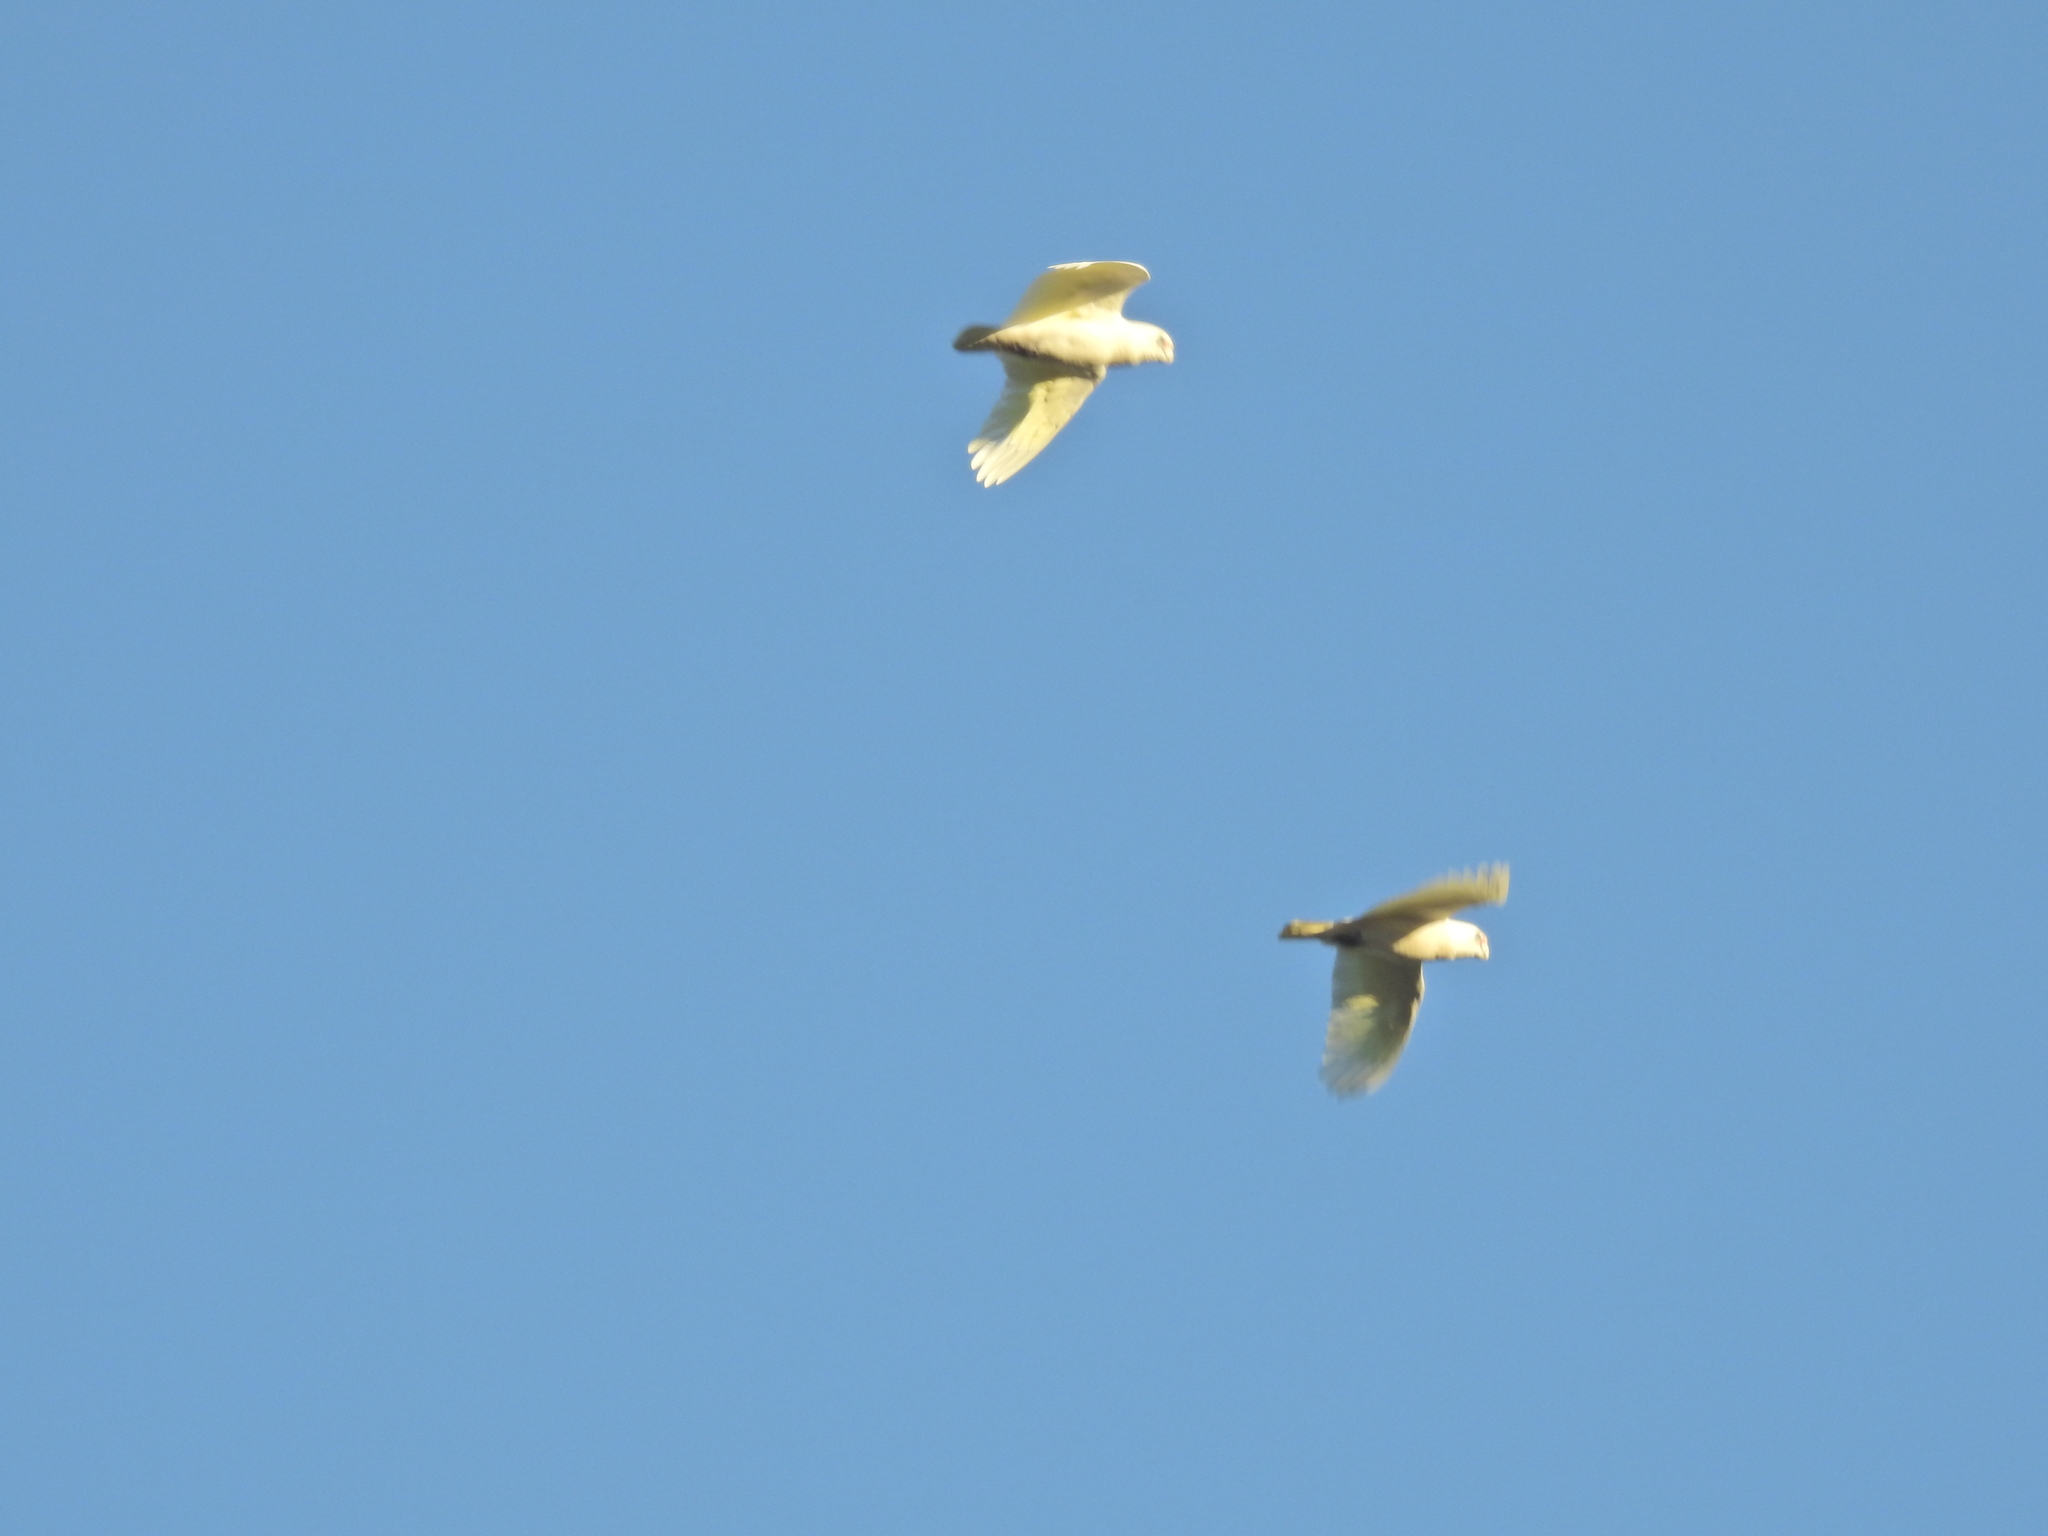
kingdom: Animalia
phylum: Chordata
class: Aves
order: Psittaciformes
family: Psittacidae
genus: Cacatua
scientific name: Cacatua sanguinea
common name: Little corella
